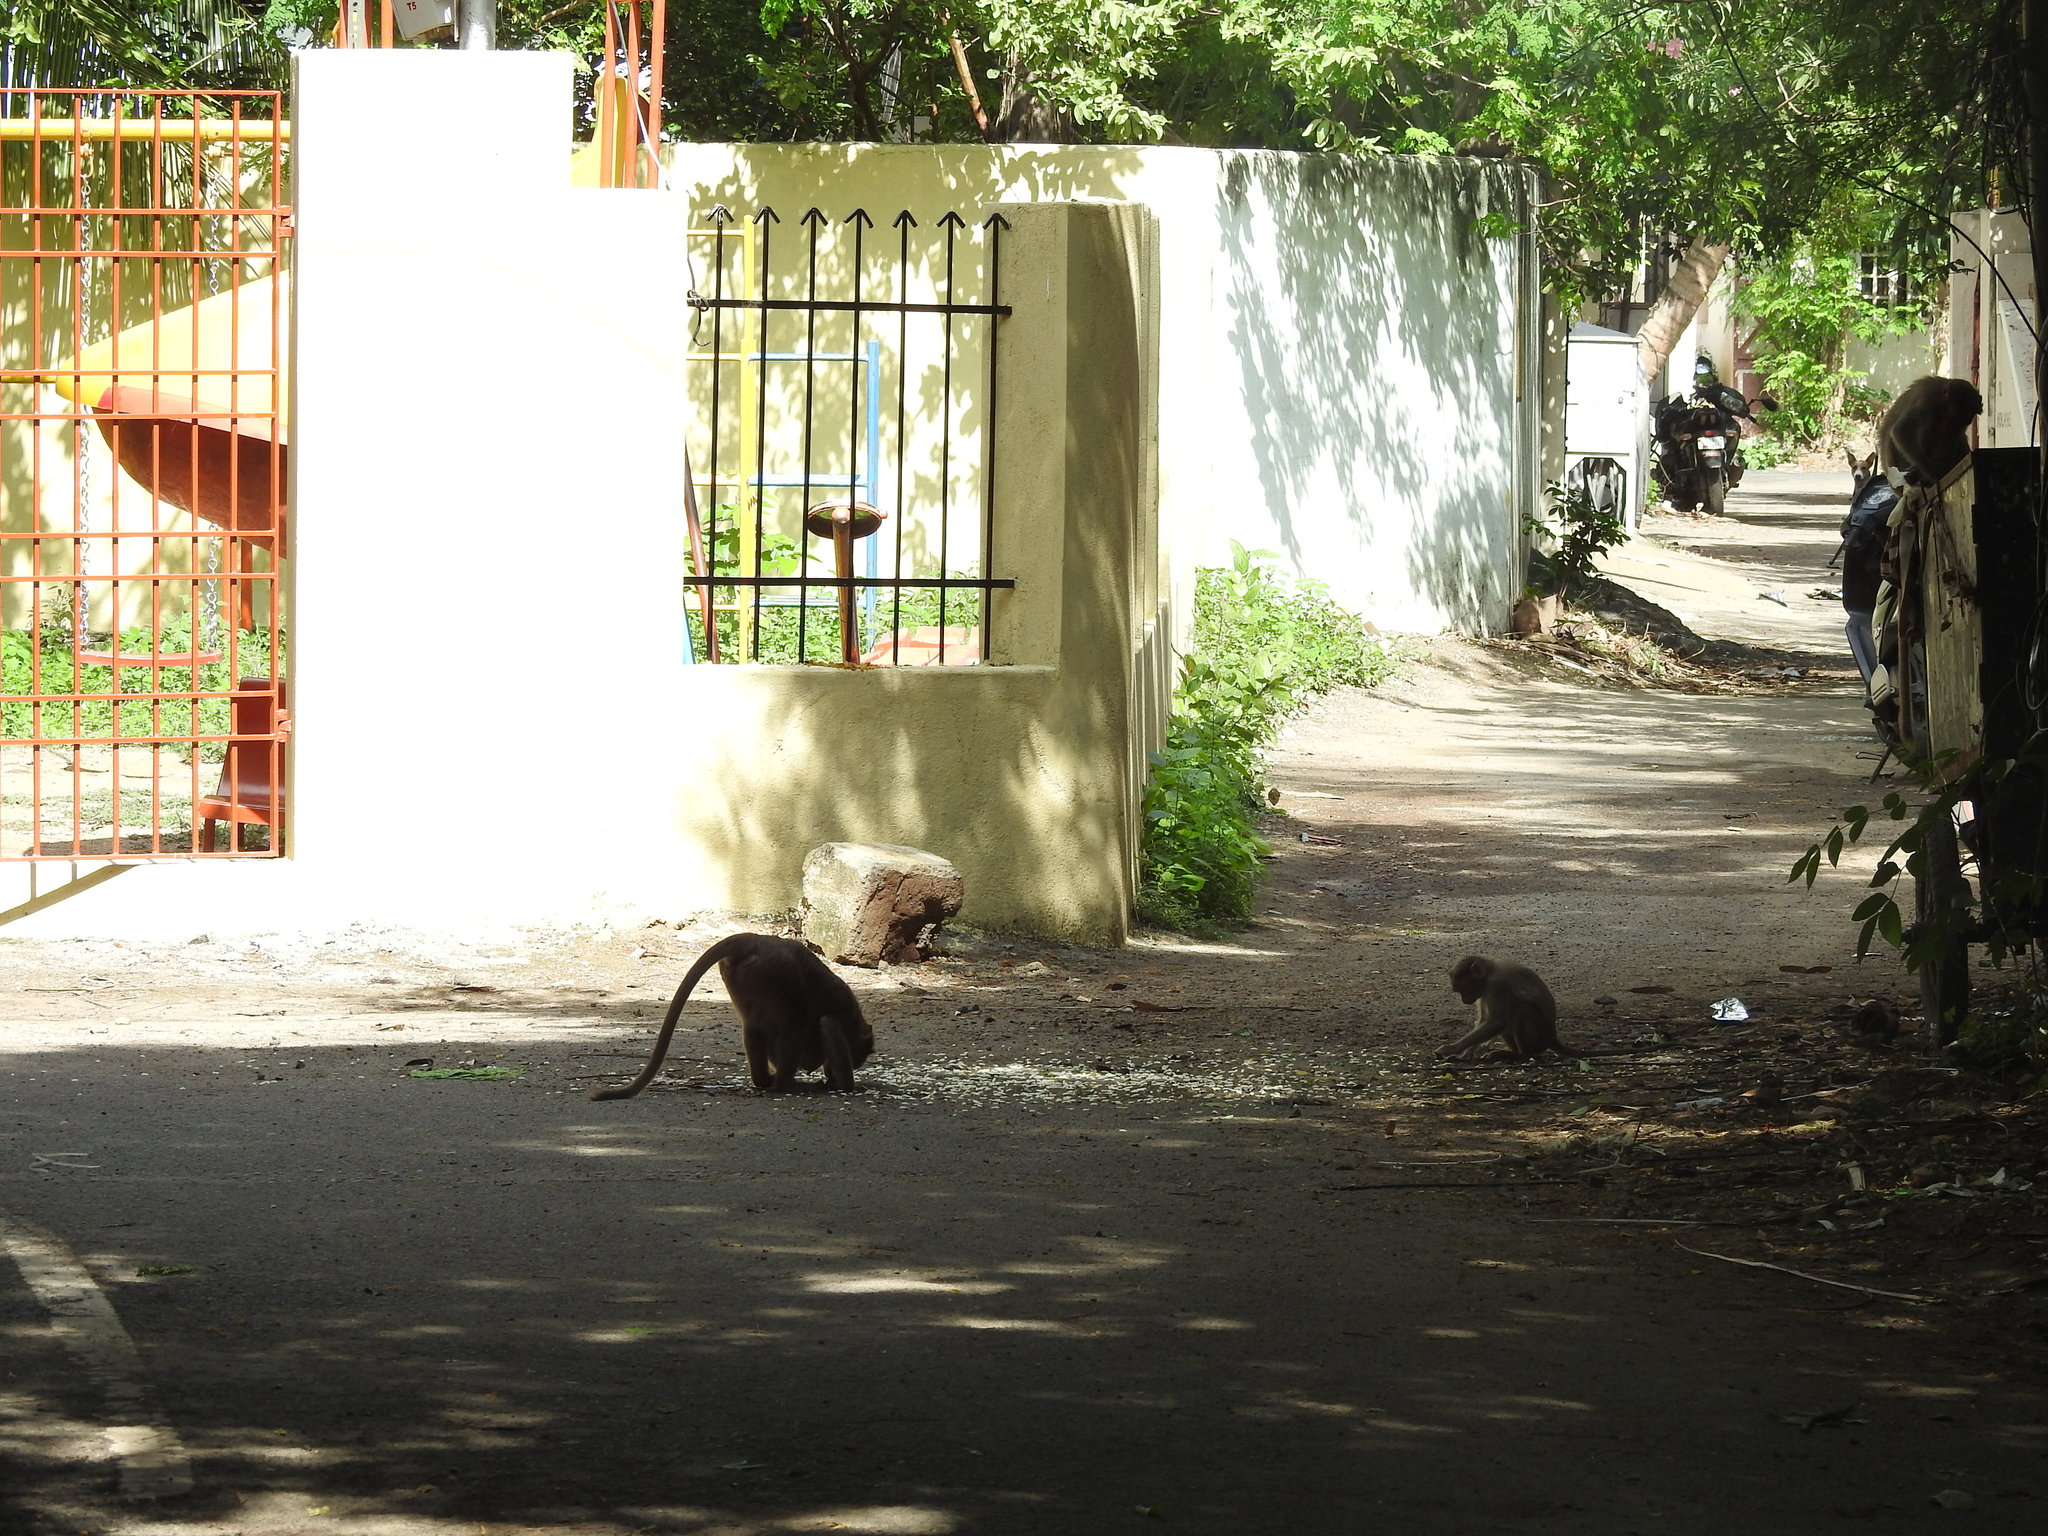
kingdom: Animalia
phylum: Chordata
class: Mammalia
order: Primates
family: Cercopithecidae
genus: Macaca
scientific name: Macaca radiata
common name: Bonnet macaque
